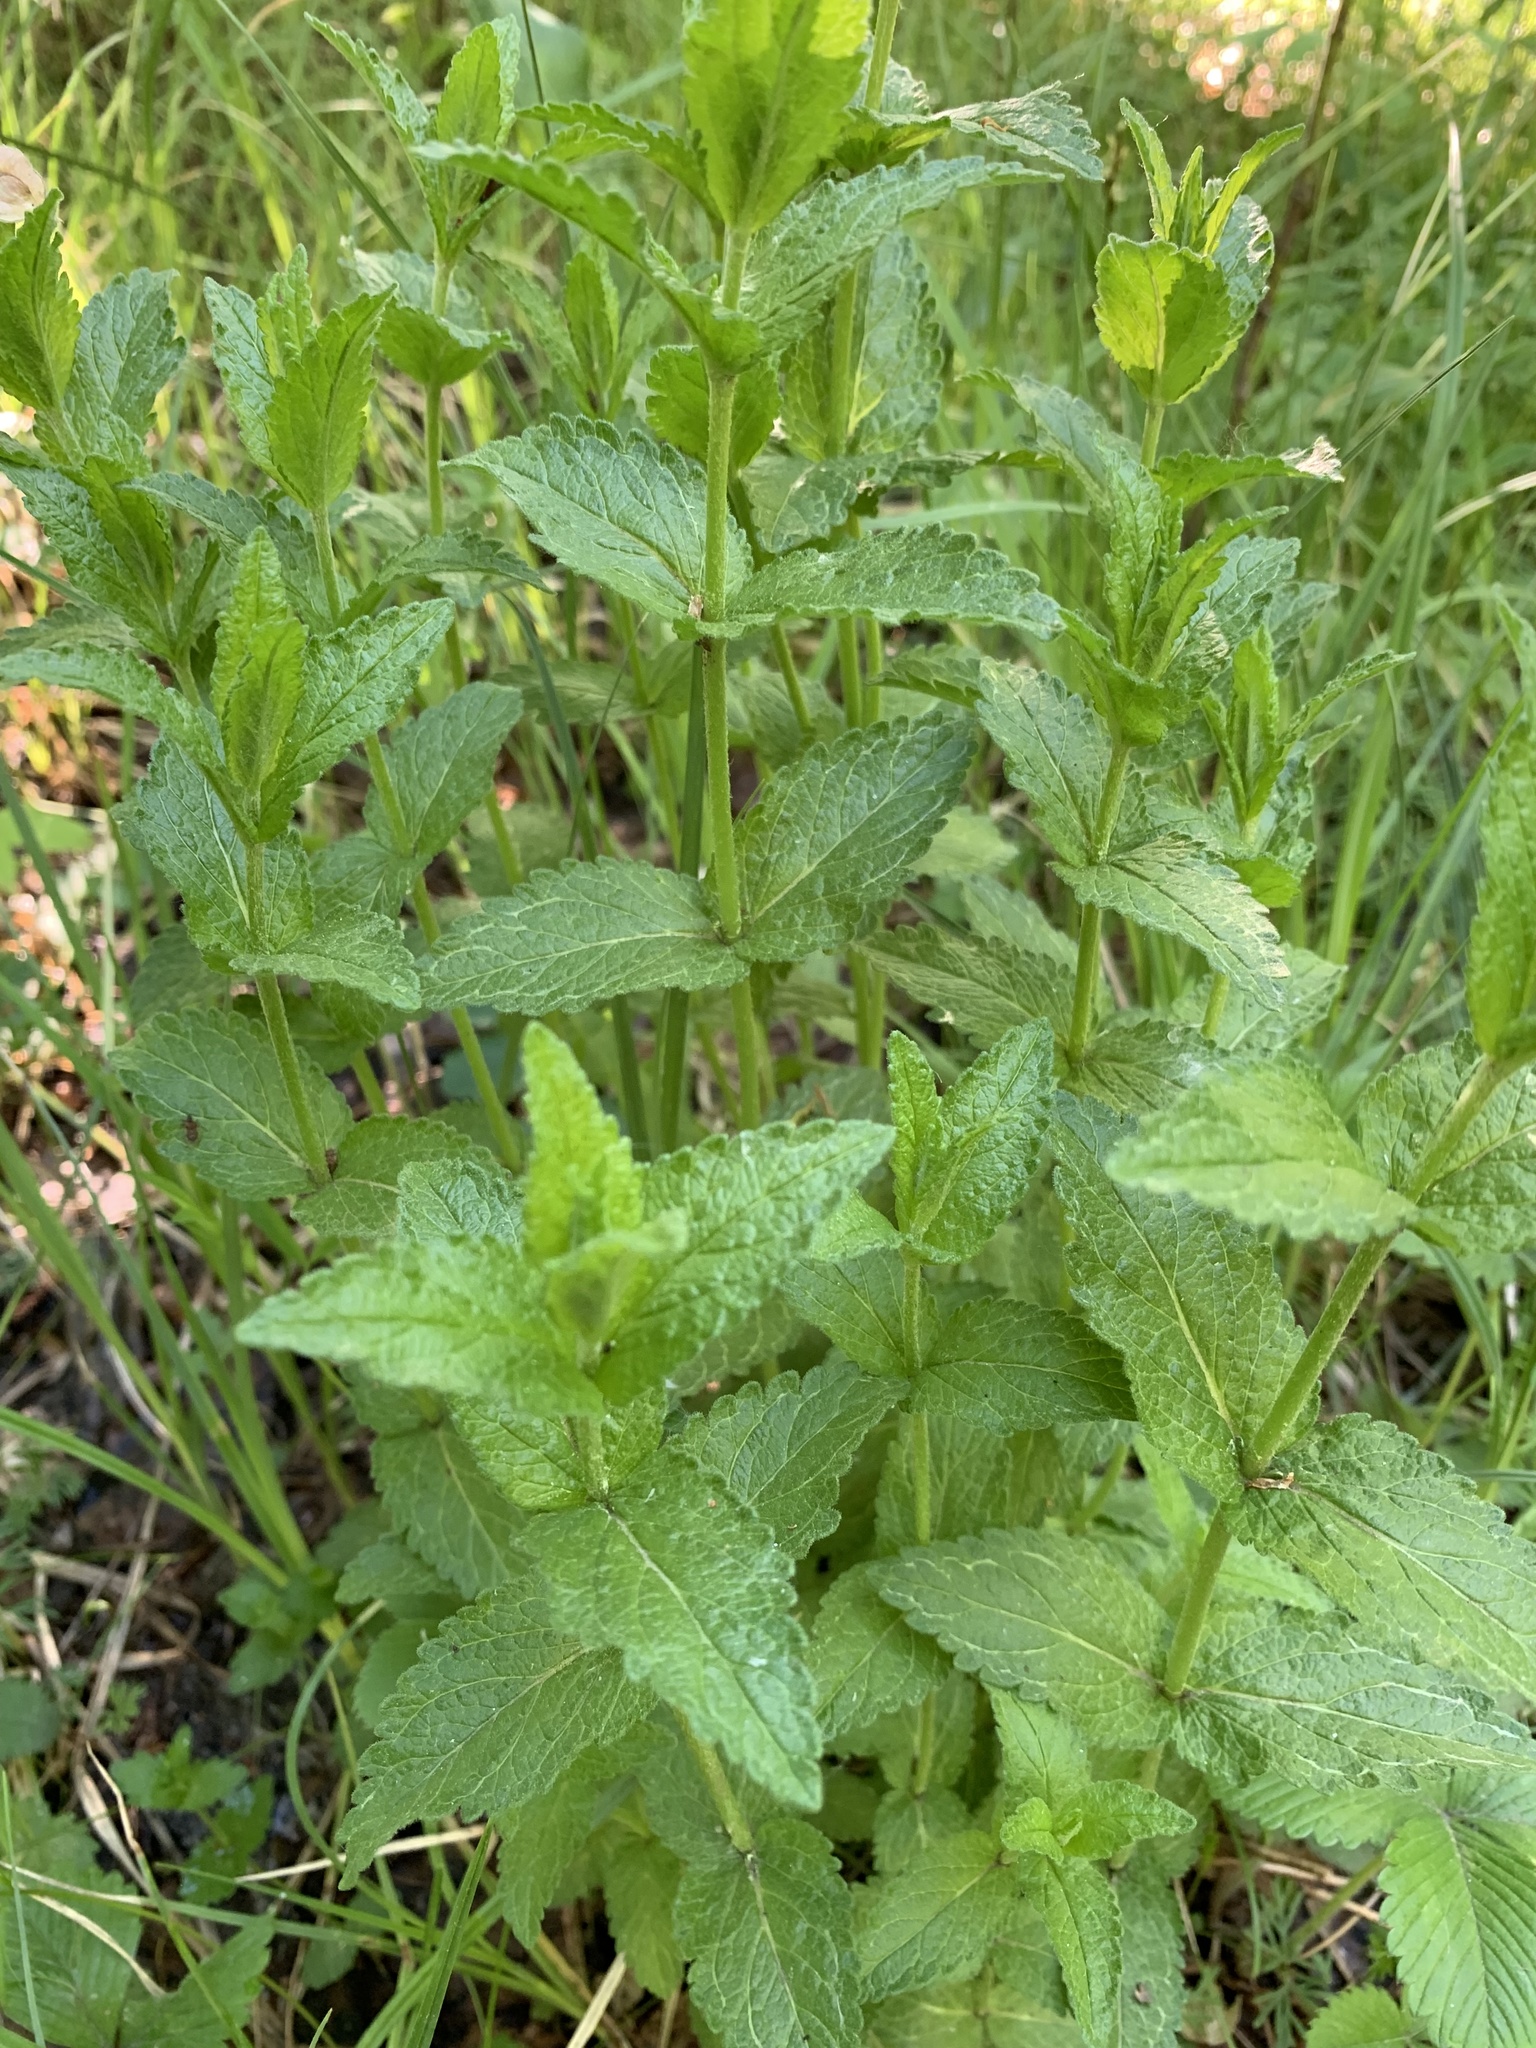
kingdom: Plantae
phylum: Tracheophyta
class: Magnoliopsida
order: Lamiales
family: Plantaginaceae
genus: Veronica
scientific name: Veronica teucrium
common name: Large speedwell
